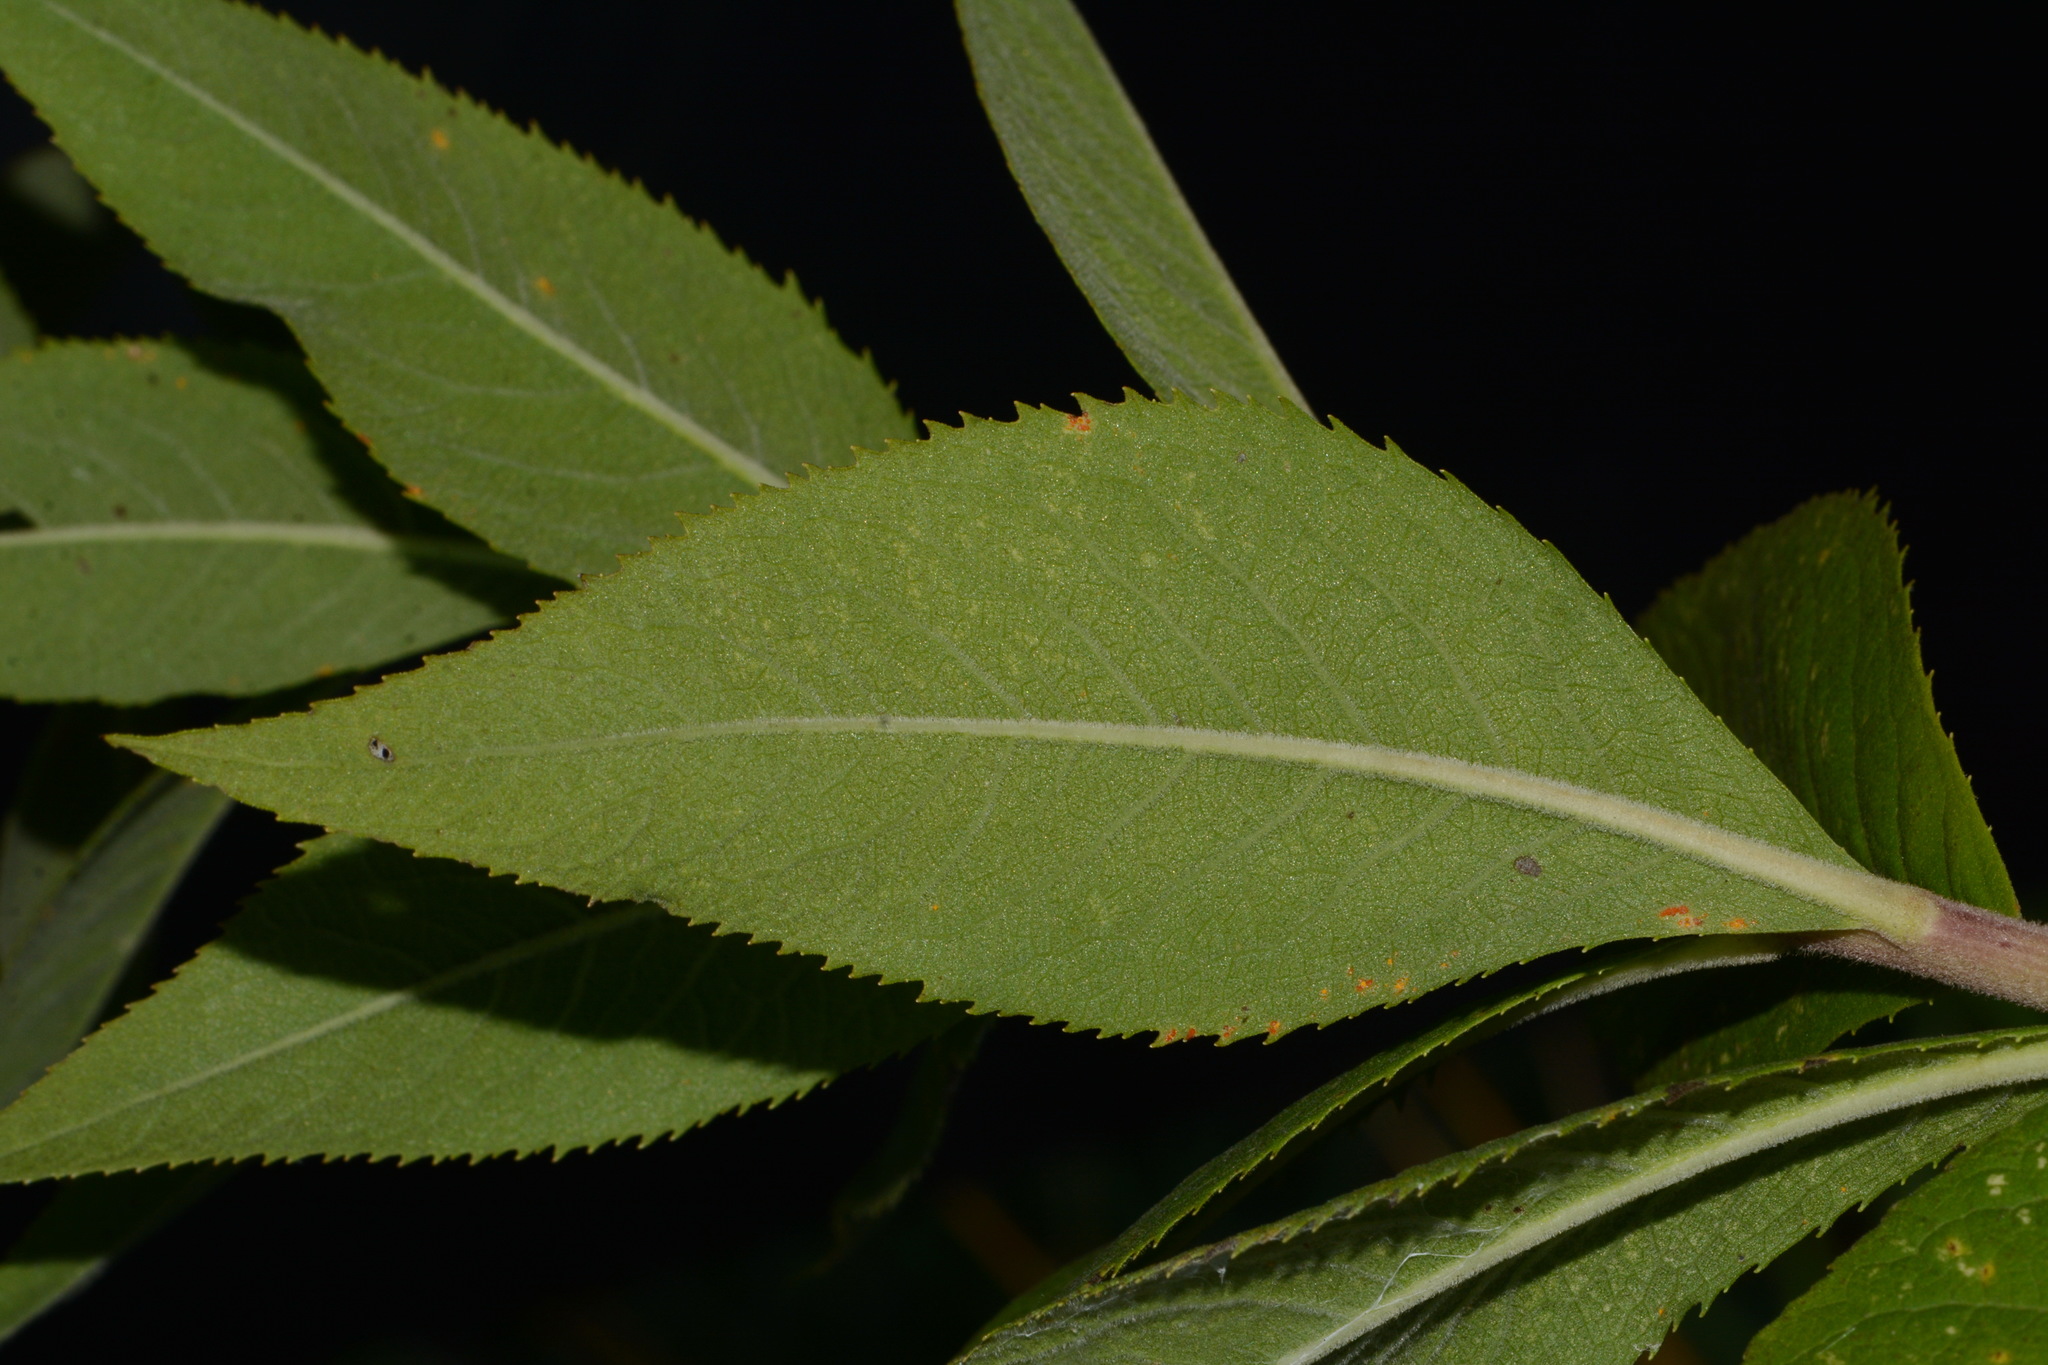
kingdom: Plantae
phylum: Tracheophyta
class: Magnoliopsida
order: Asterales
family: Asteraceae
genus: Vernonia
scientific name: Vernonia baldwinii
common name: Western ironweed
